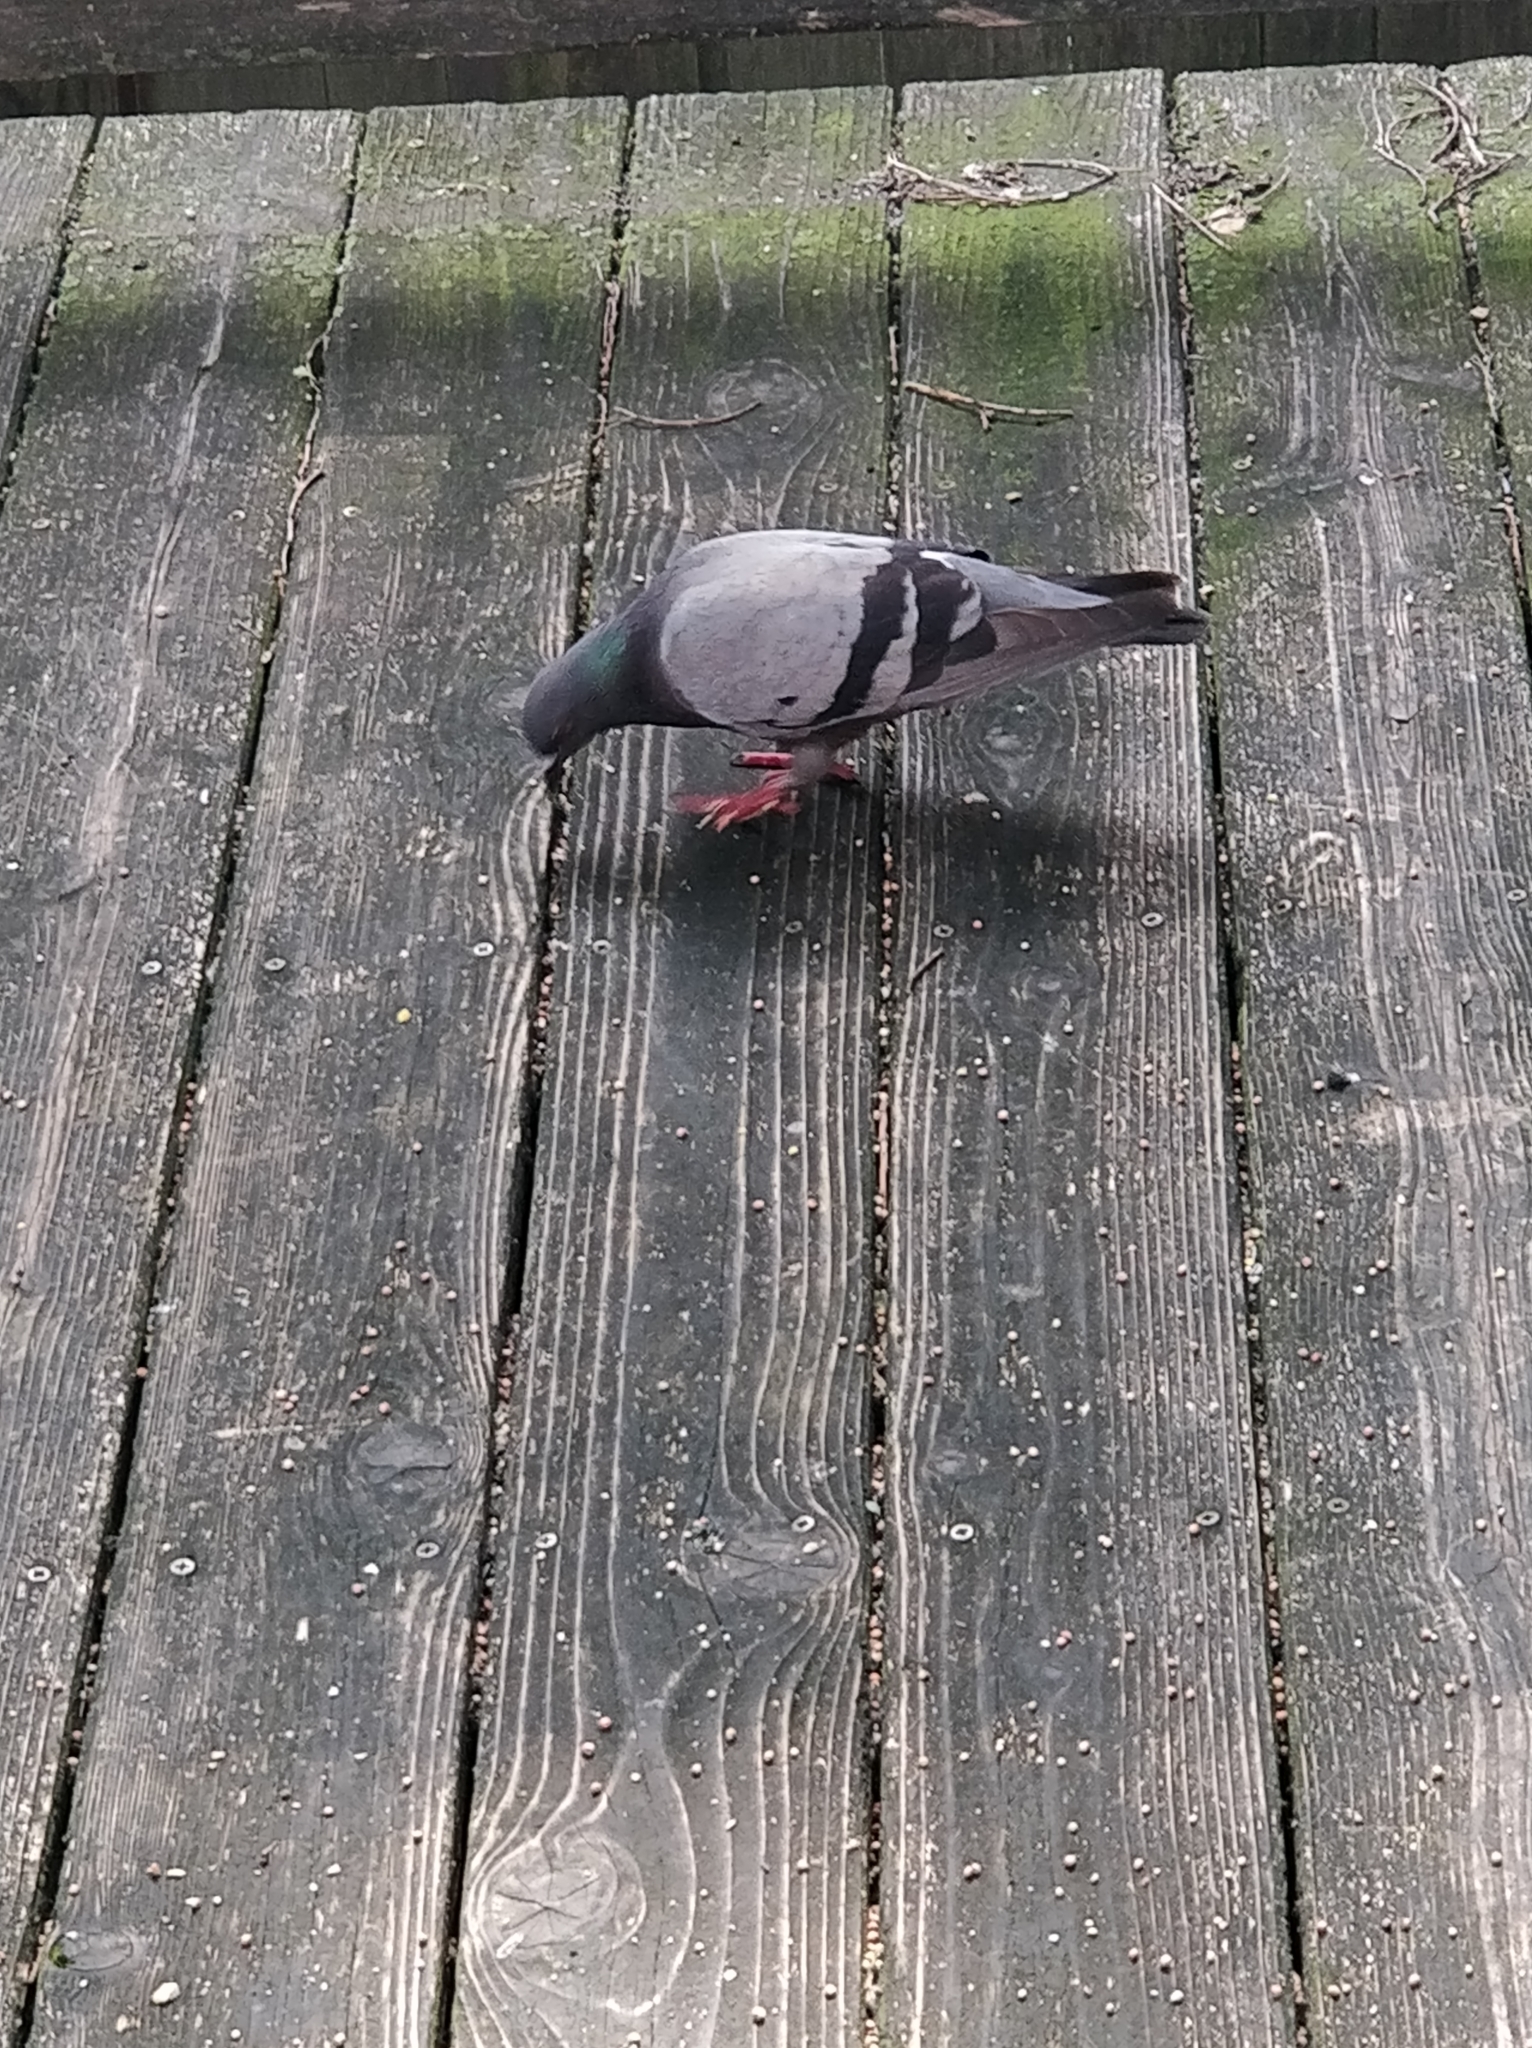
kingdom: Animalia
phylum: Chordata
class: Aves
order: Columbiformes
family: Columbidae
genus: Columba
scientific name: Columba livia
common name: Rock pigeon
